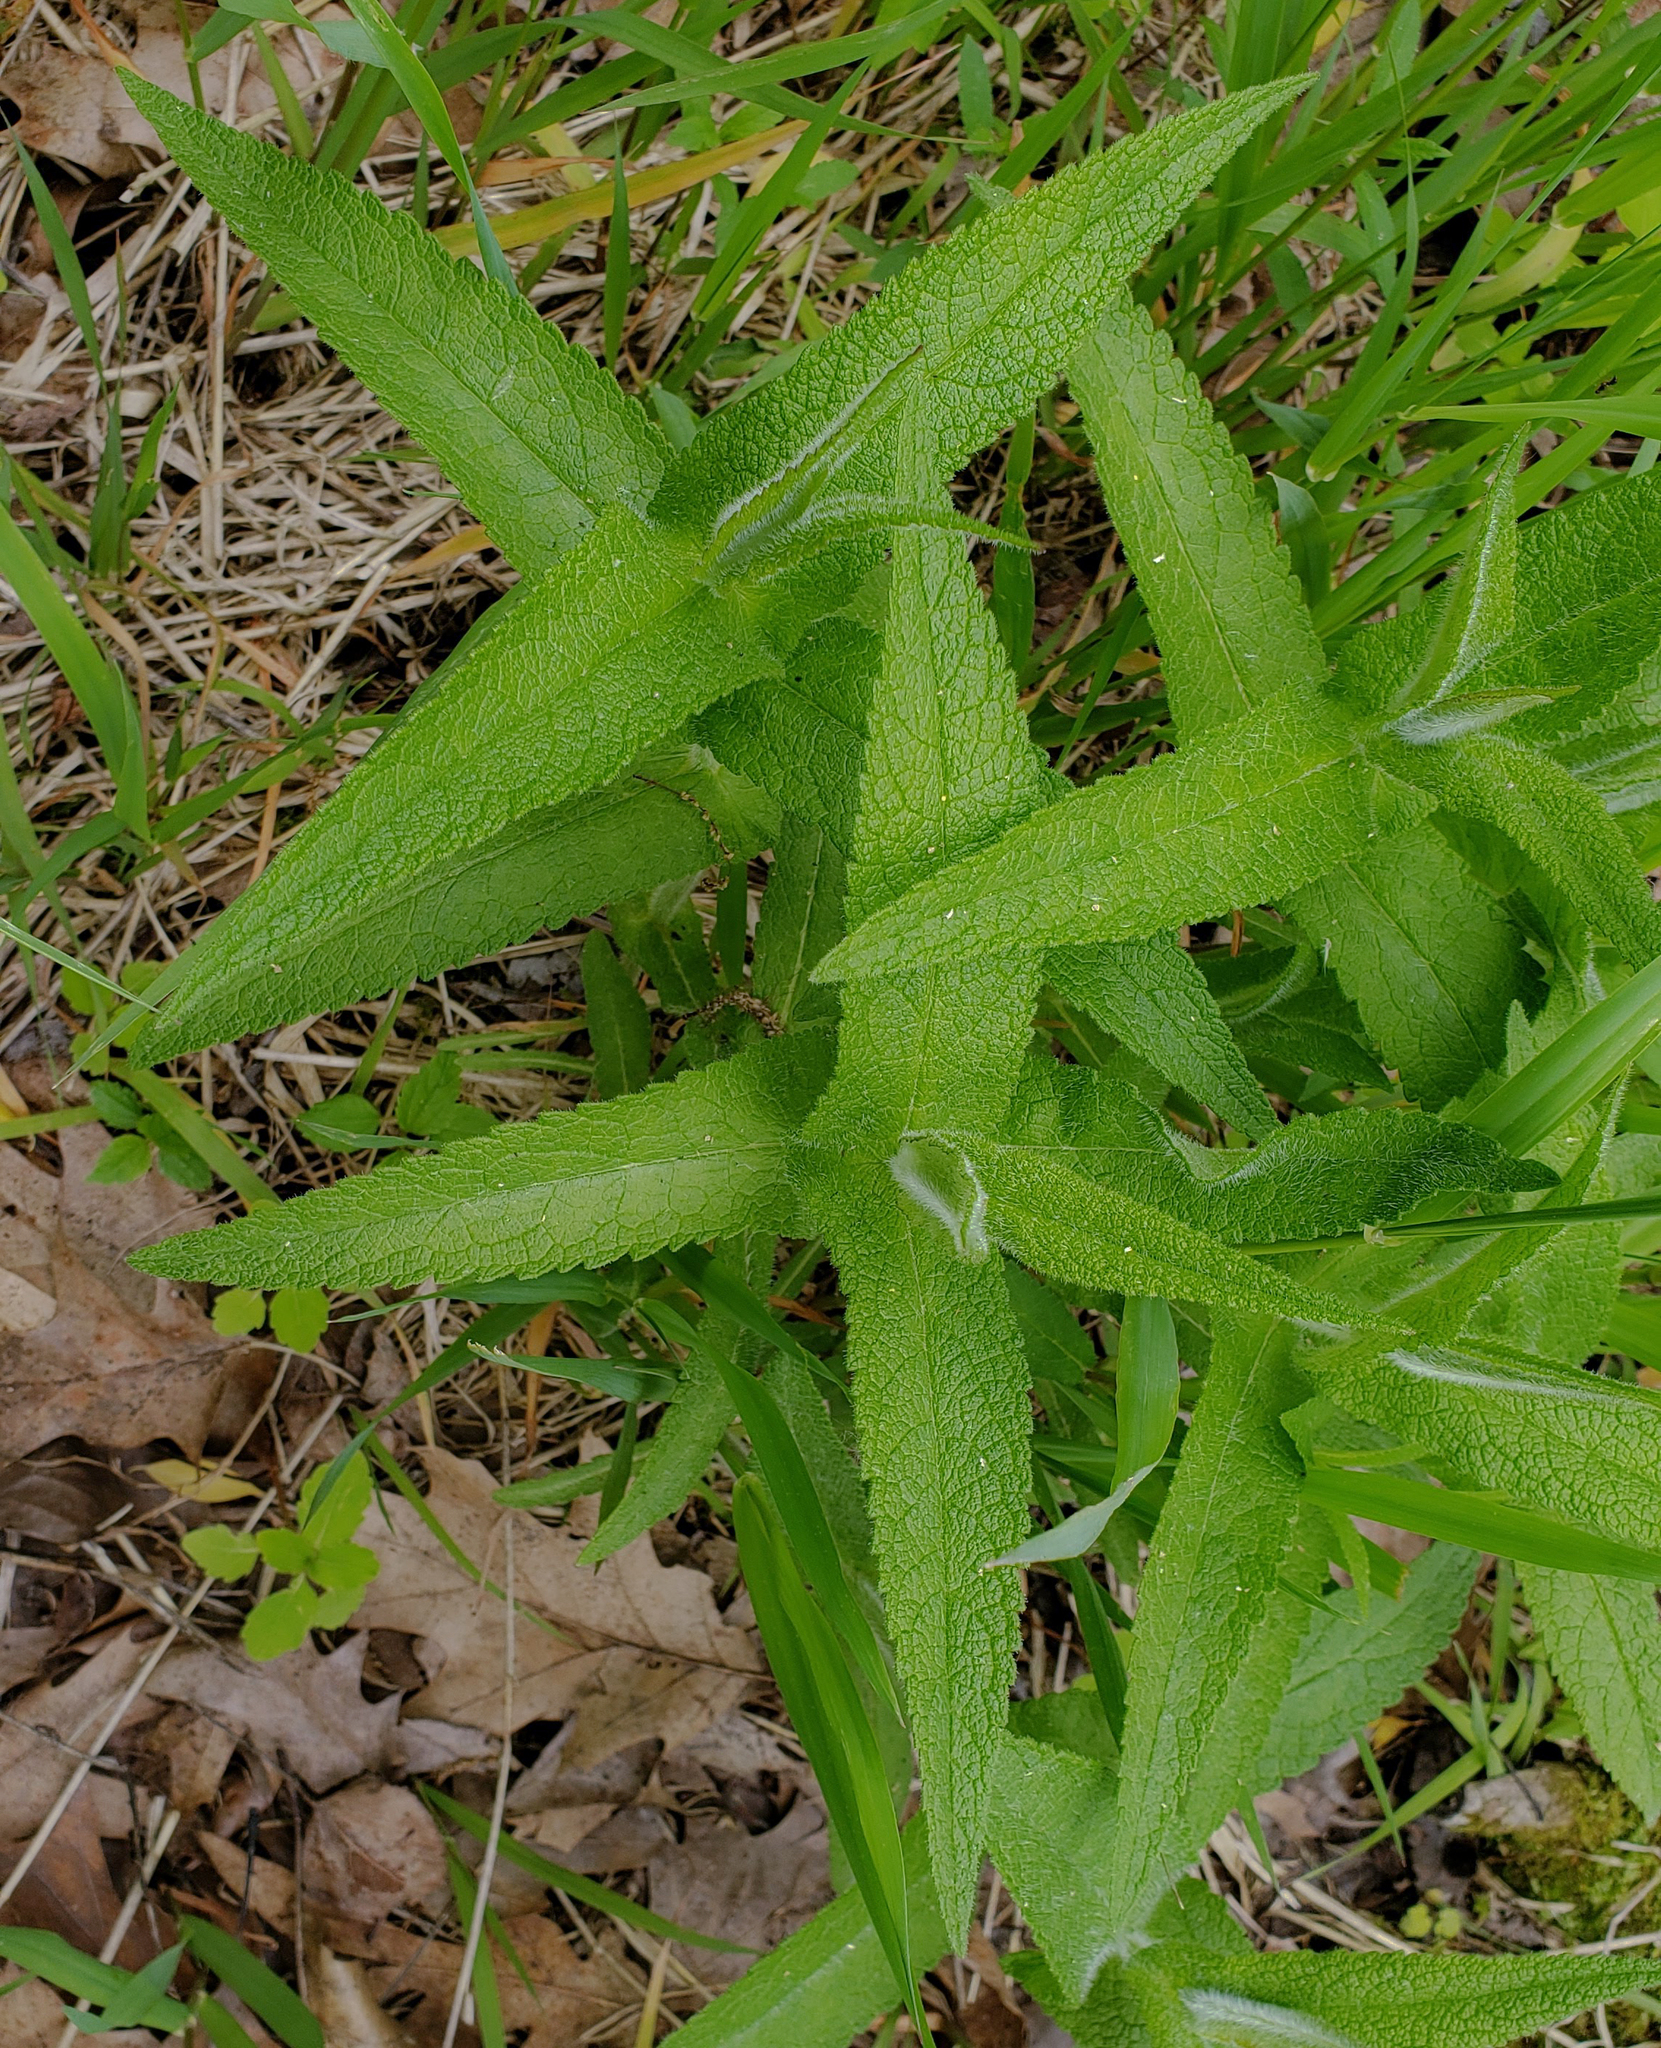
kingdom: Plantae
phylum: Tracheophyta
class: Magnoliopsida
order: Asterales
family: Asteraceae
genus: Eupatorium
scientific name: Eupatorium perfoliatum
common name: Boneset
